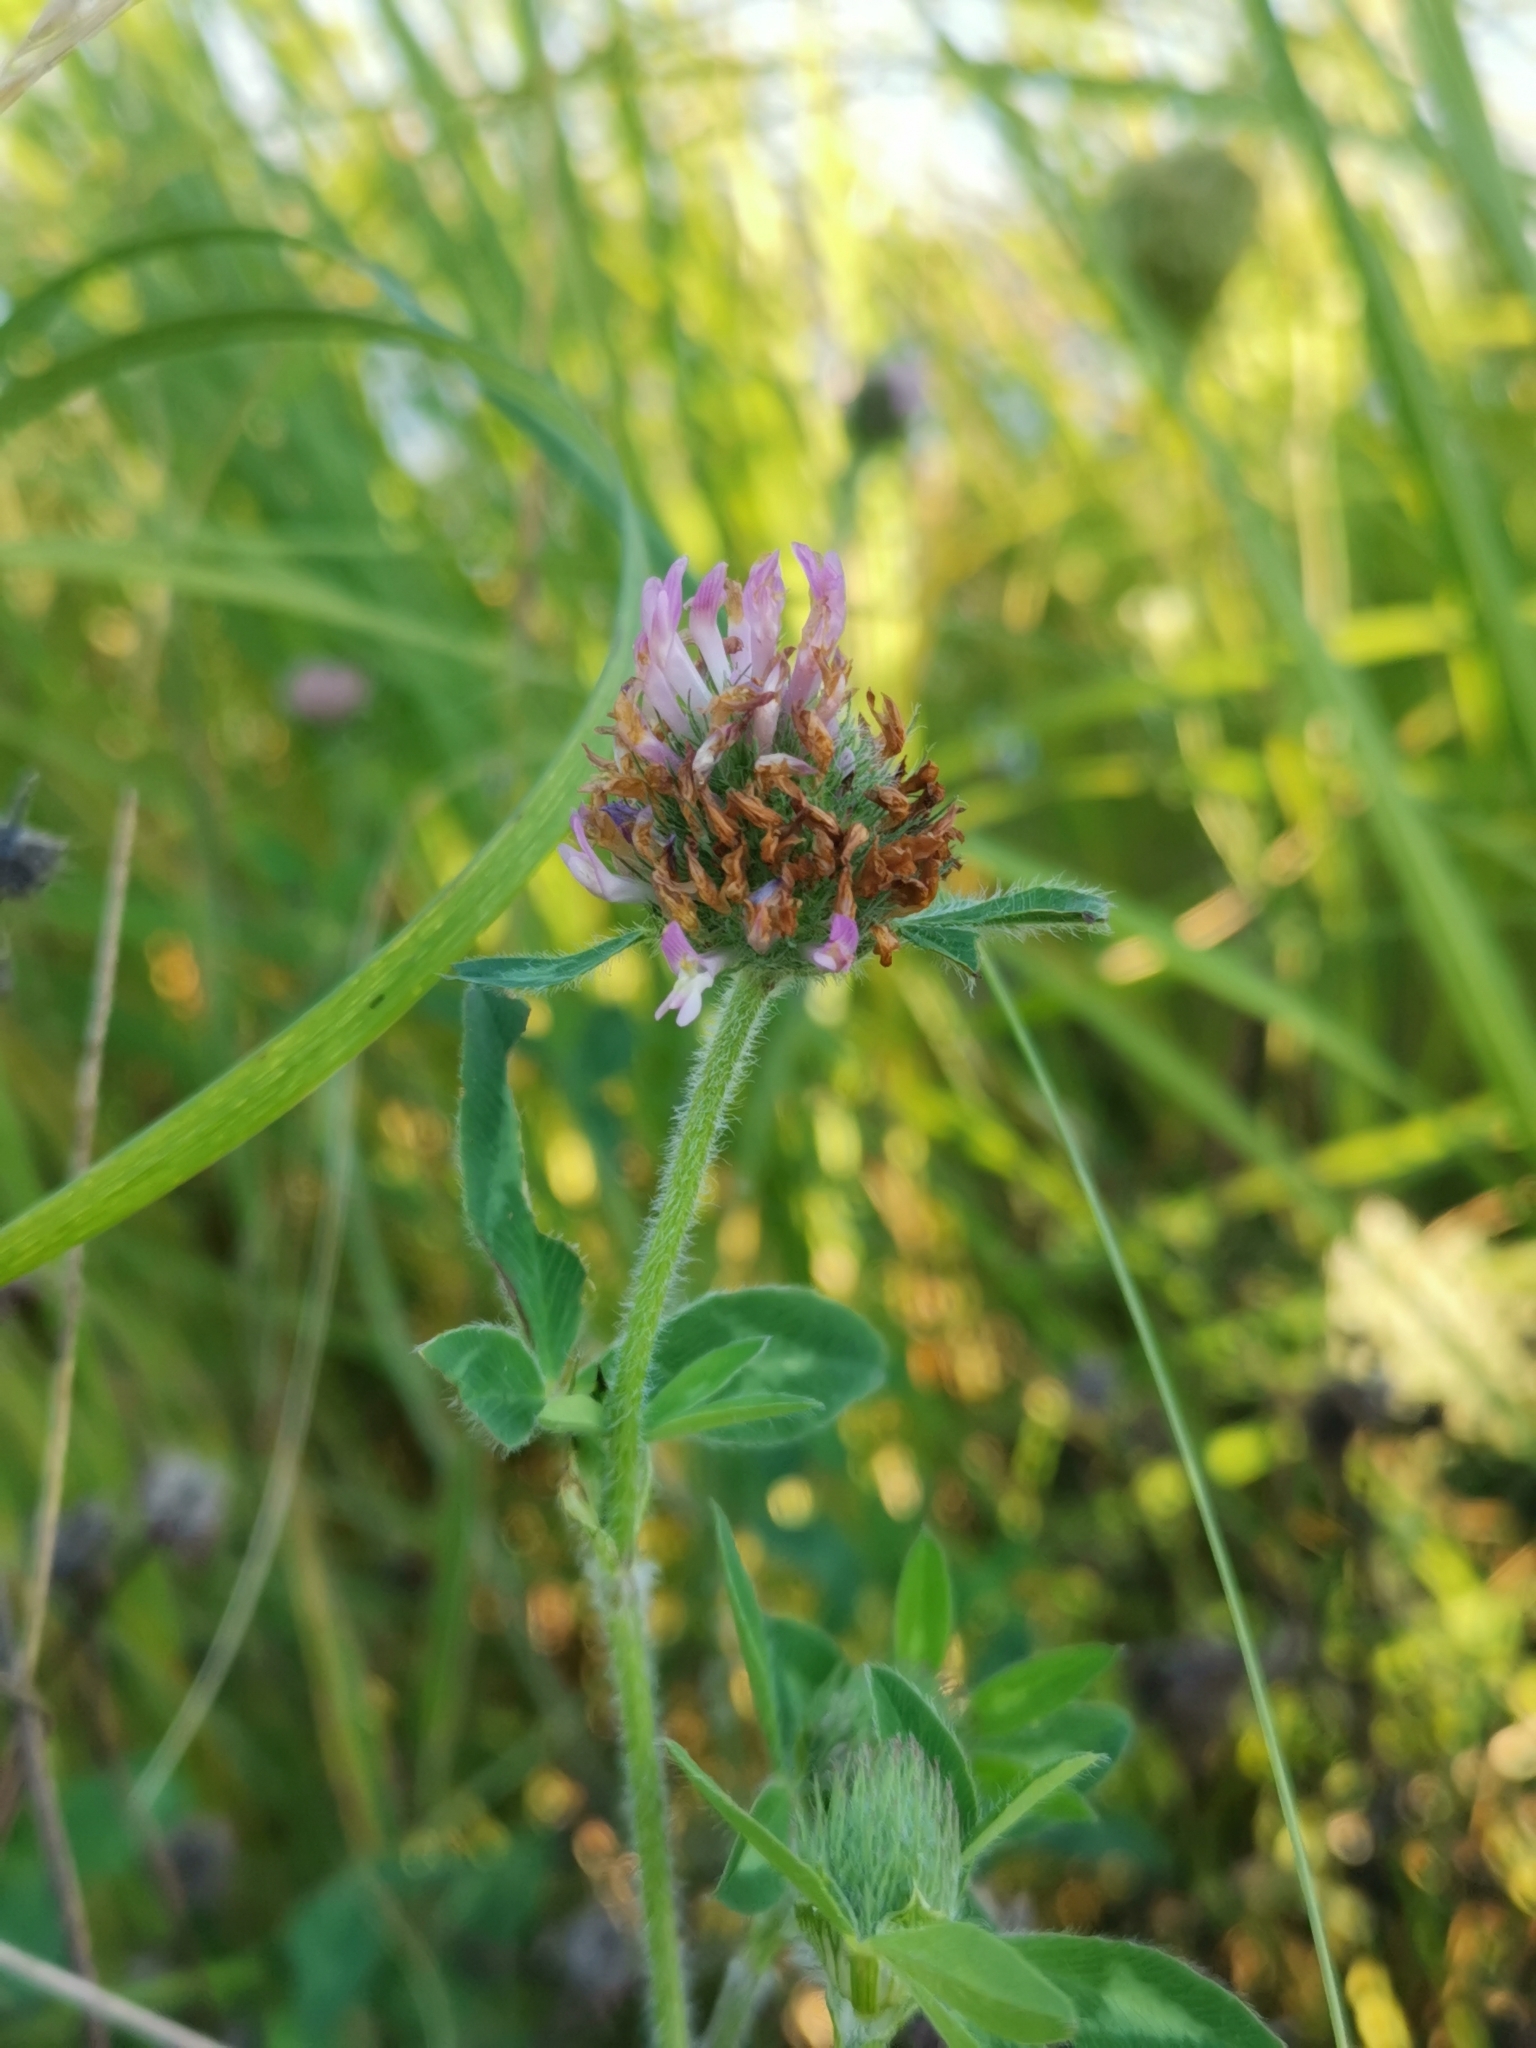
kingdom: Plantae
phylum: Tracheophyta
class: Magnoliopsida
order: Fabales
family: Fabaceae
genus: Trifolium
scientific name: Trifolium pratense
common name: Red clover
